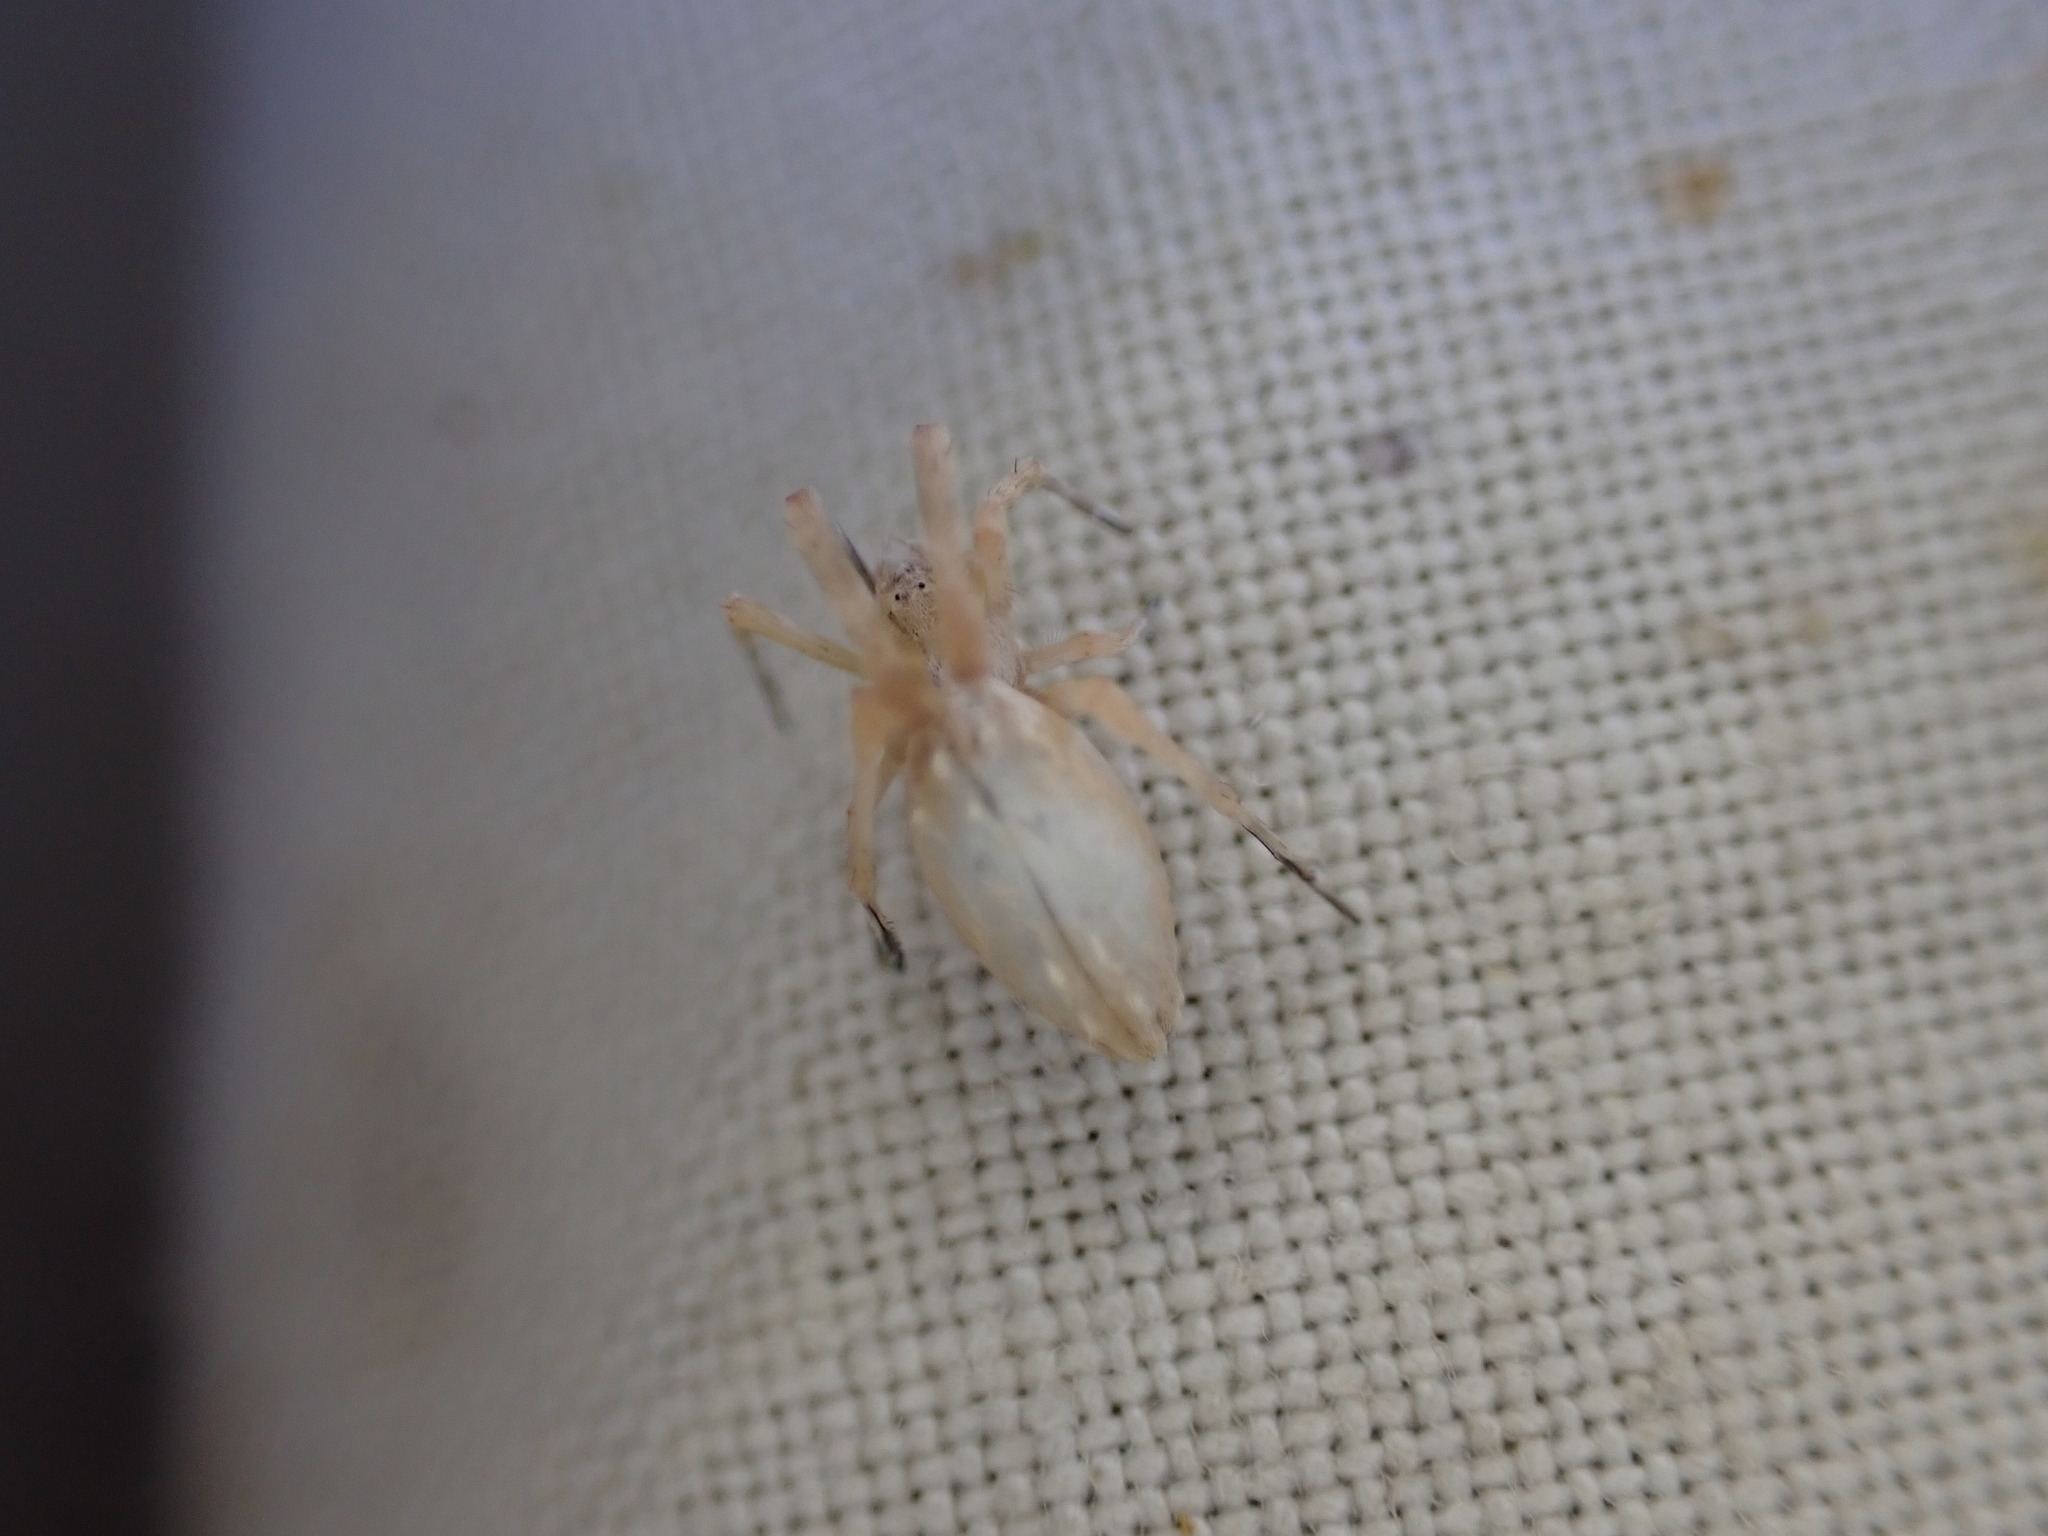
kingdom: Animalia
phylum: Arthropoda
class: Arachnida
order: Araneae
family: Uloboridae
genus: Uloborus
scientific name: Uloborus walckenaerius
